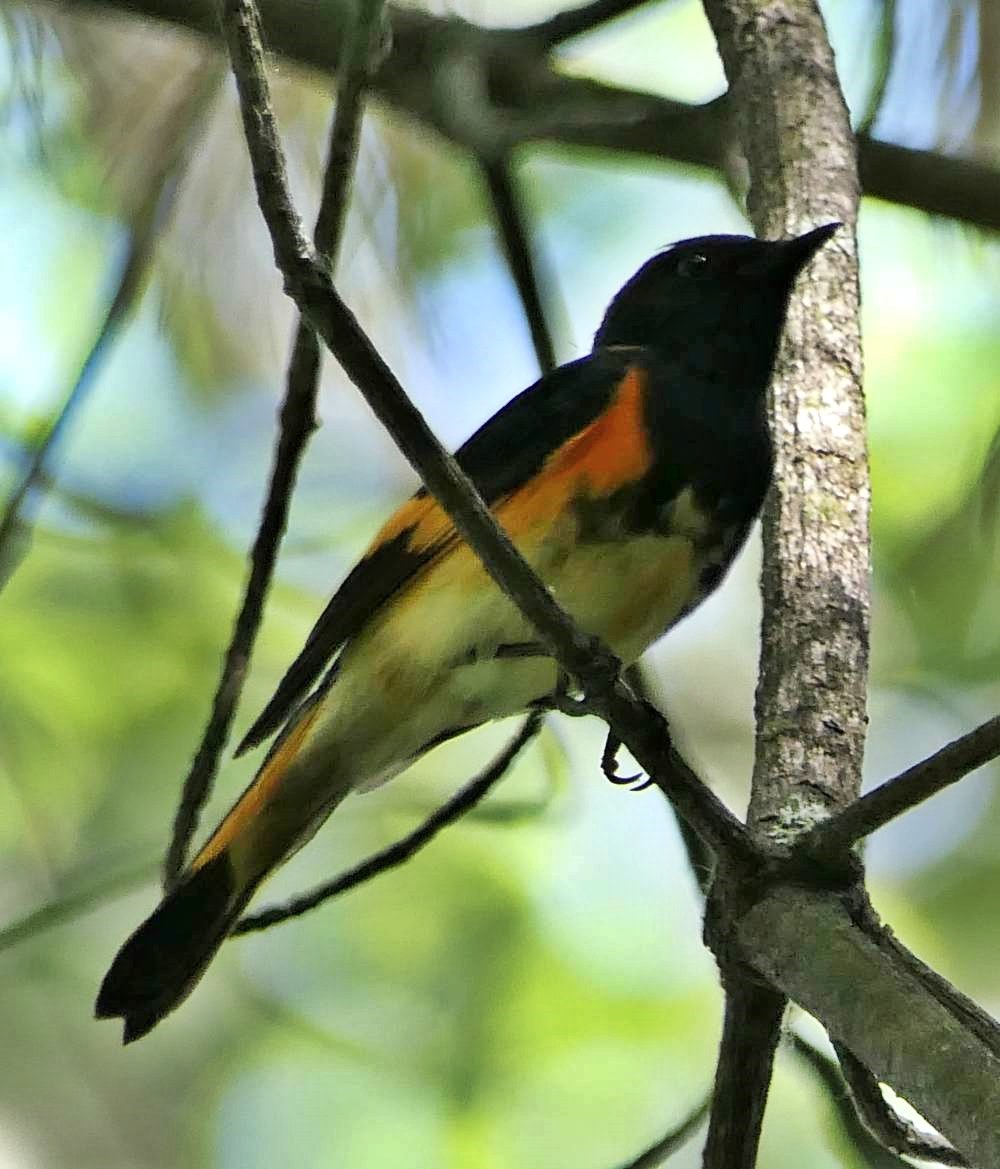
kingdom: Animalia
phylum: Chordata
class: Aves
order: Passeriformes
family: Parulidae
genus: Setophaga
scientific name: Setophaga ruticilla
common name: American redstart
